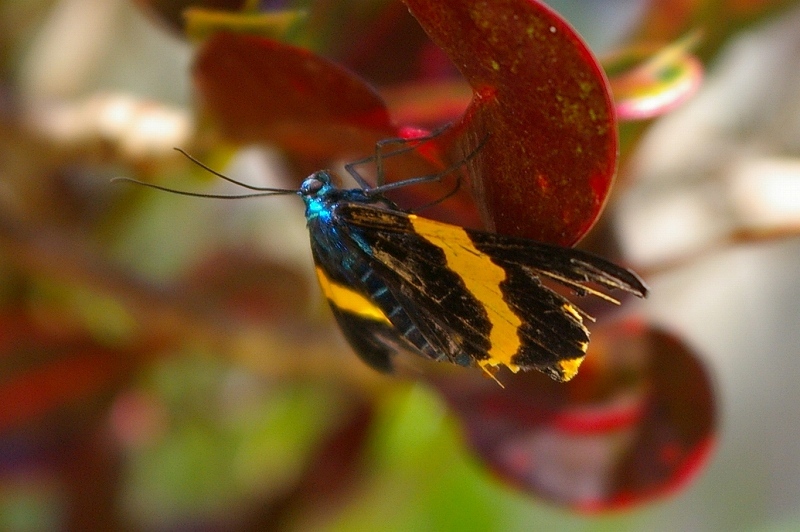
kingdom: Animalia
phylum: Arthropoda
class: Insecta
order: Lepidoptera
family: Geometridae
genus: Milionia
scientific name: Milionia basalis
